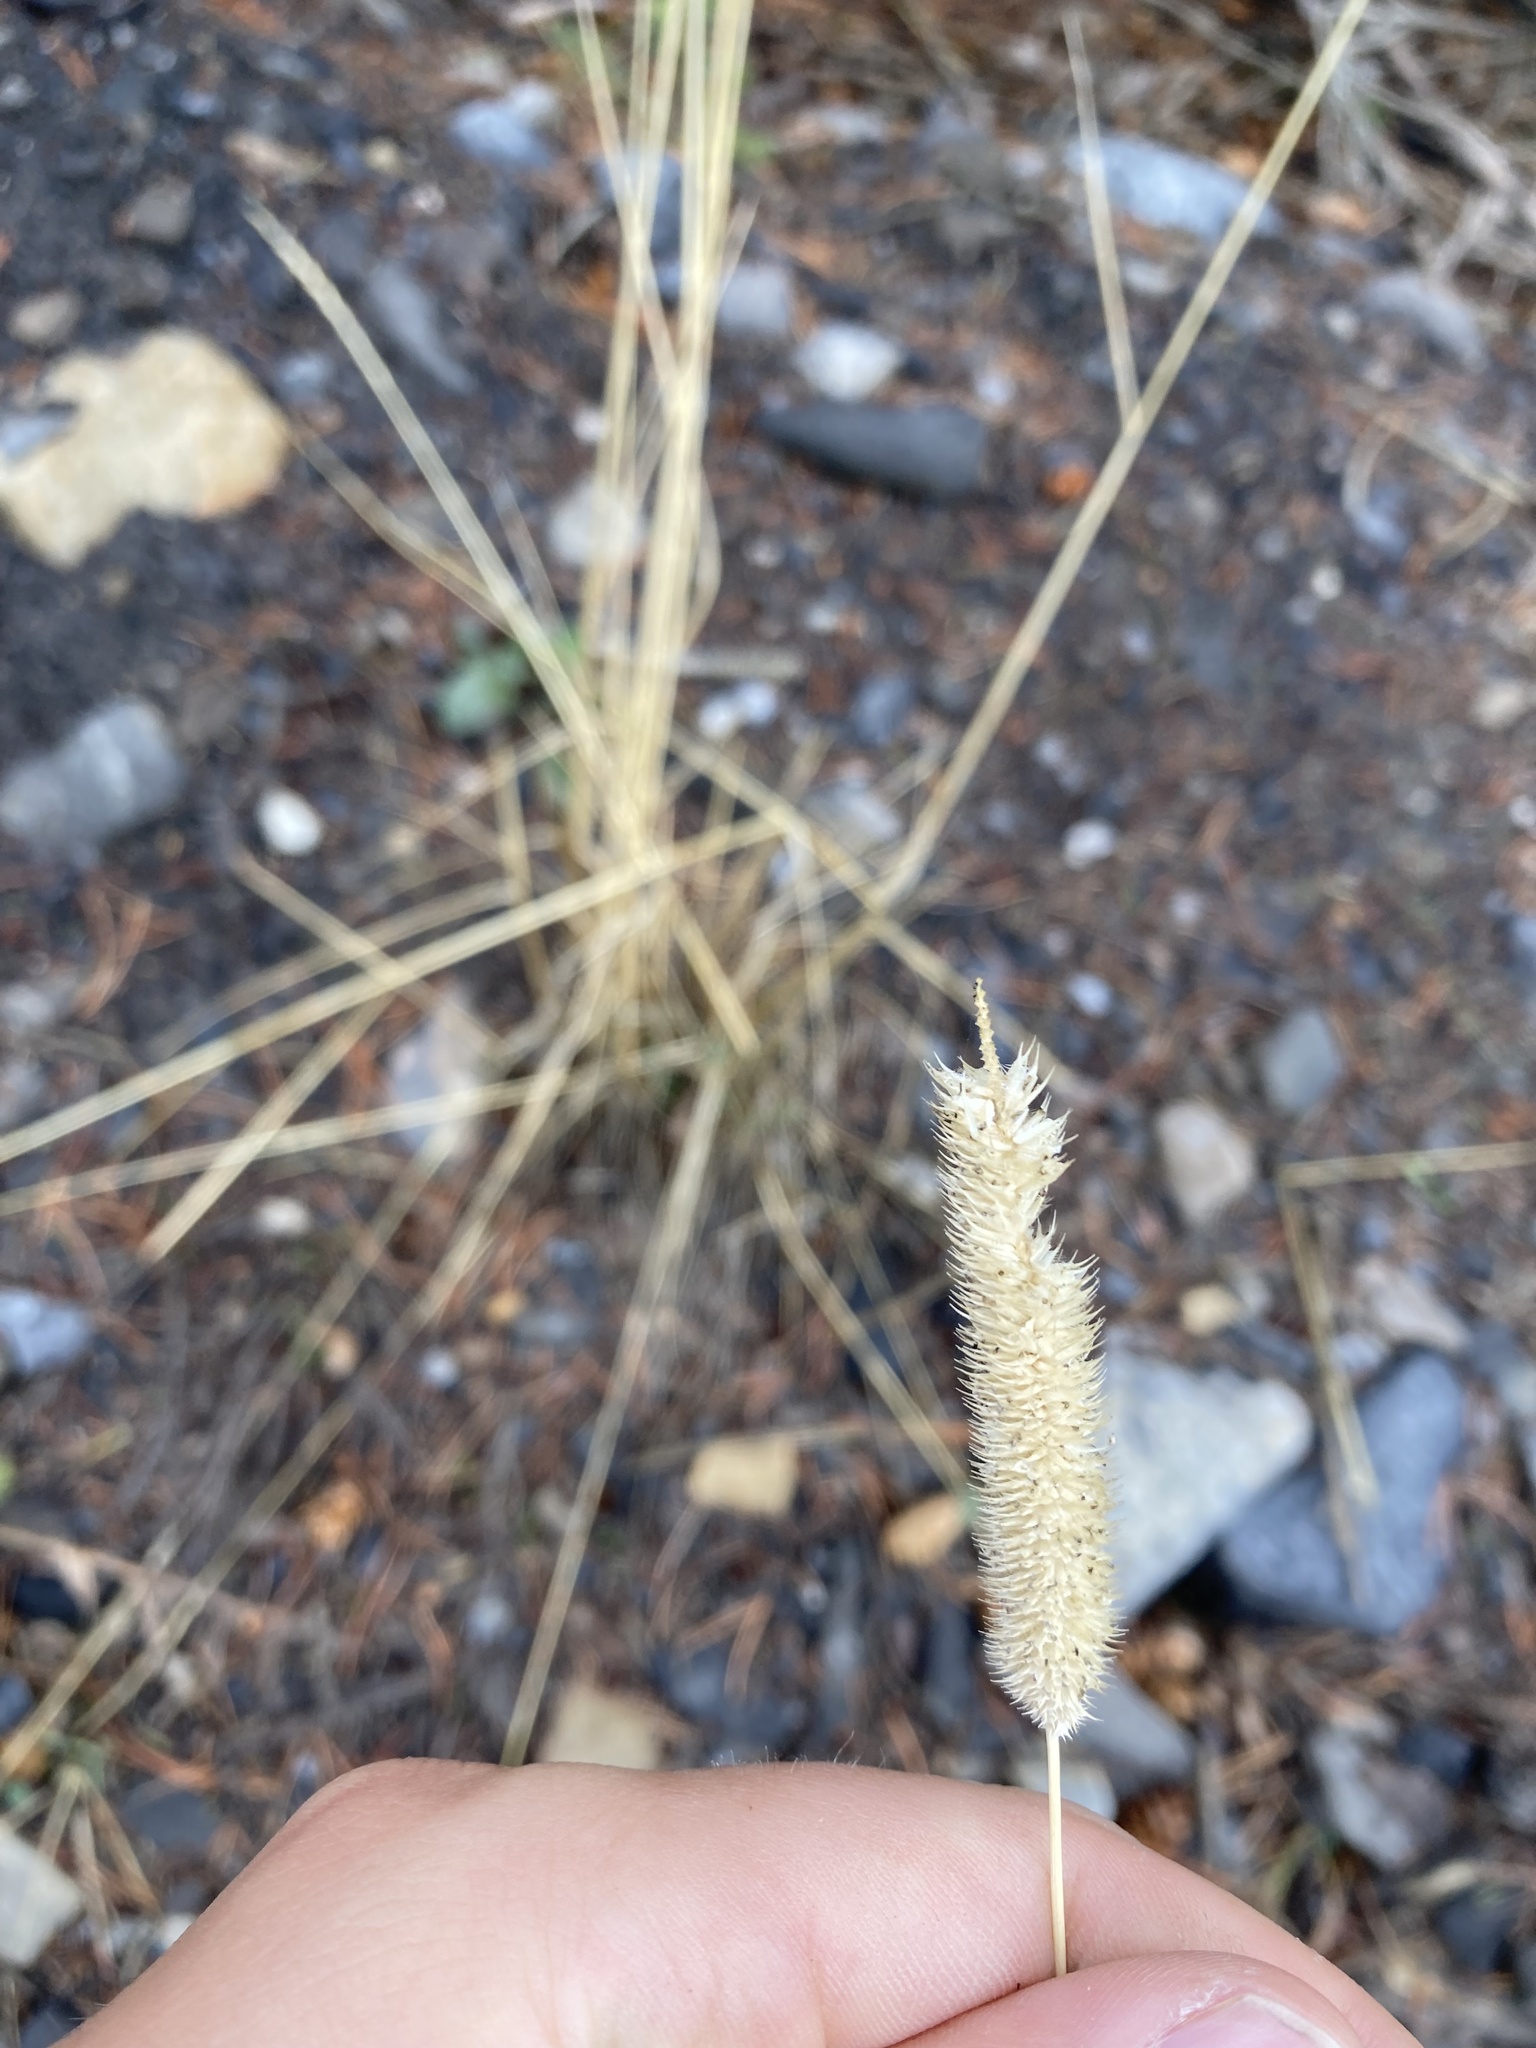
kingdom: Plantae
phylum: Tracheophyta
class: Liliopsida
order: Poales
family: Poaceae
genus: Phleum
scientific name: Phleum pratense
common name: Timothy grass
